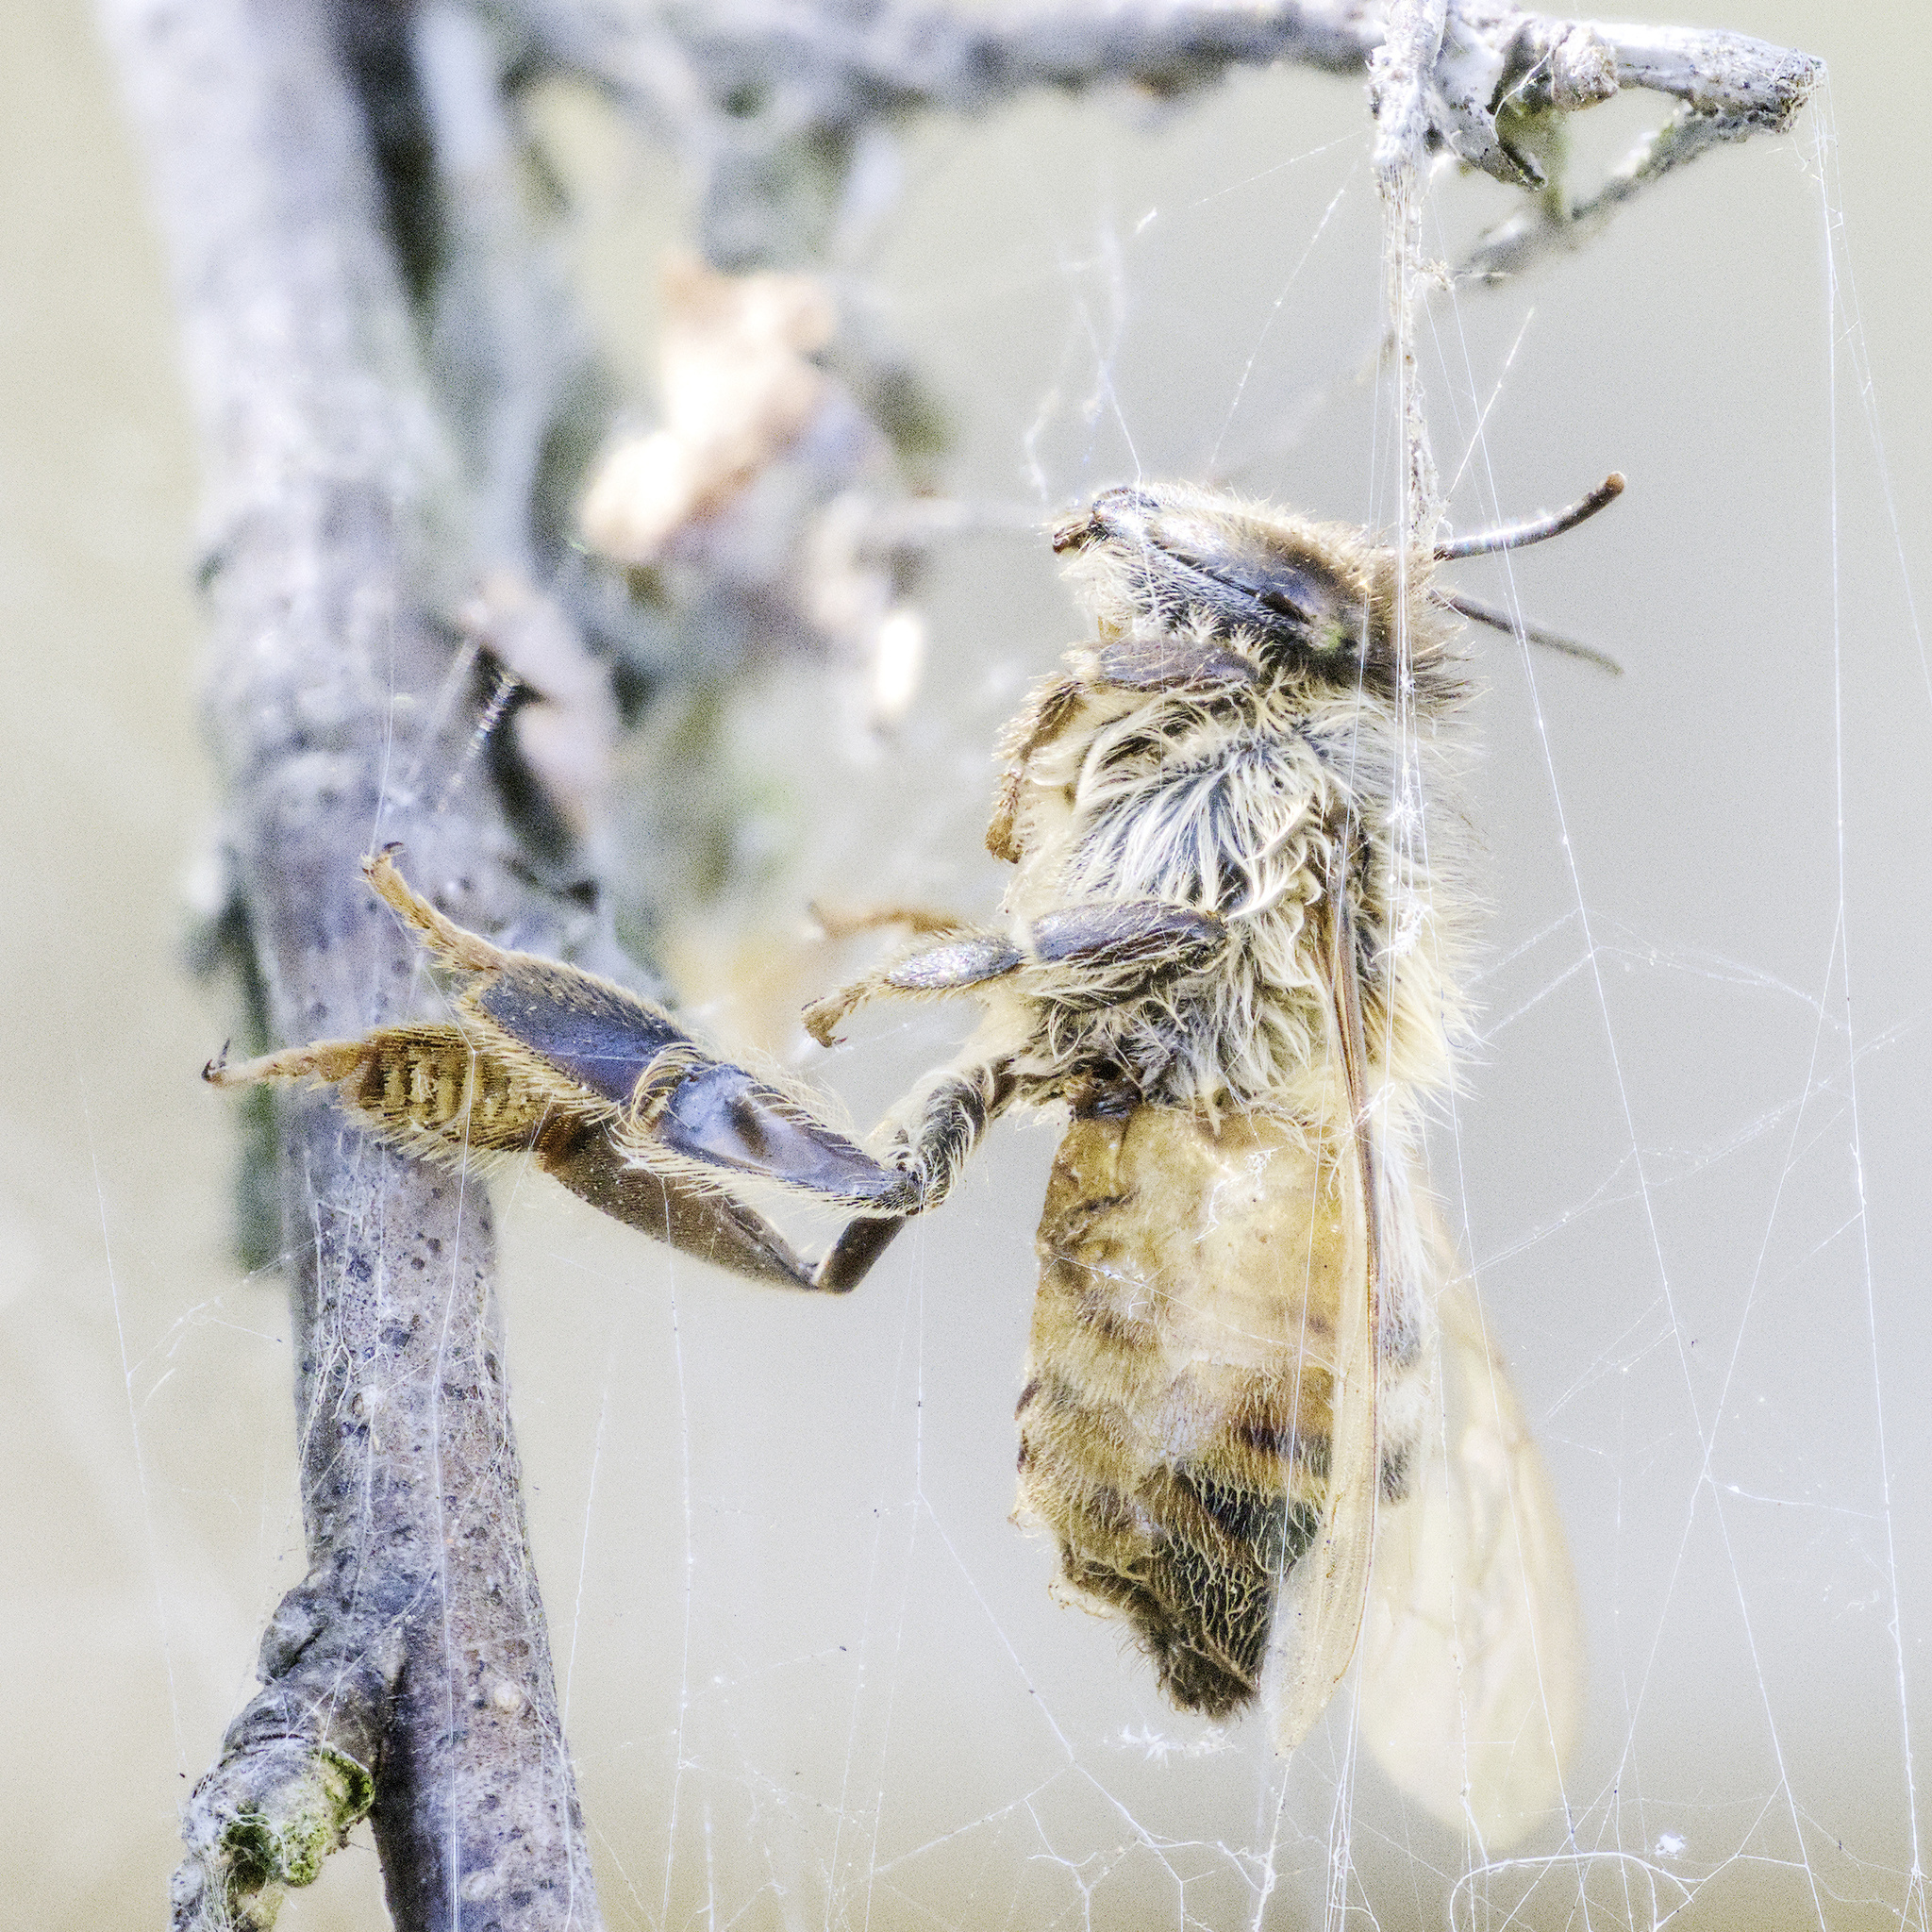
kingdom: Animalia
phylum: Arthropoda
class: Insecta
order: Hymenoptera
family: Apidae
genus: Apis
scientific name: Apis mellifera
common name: Honey bee
